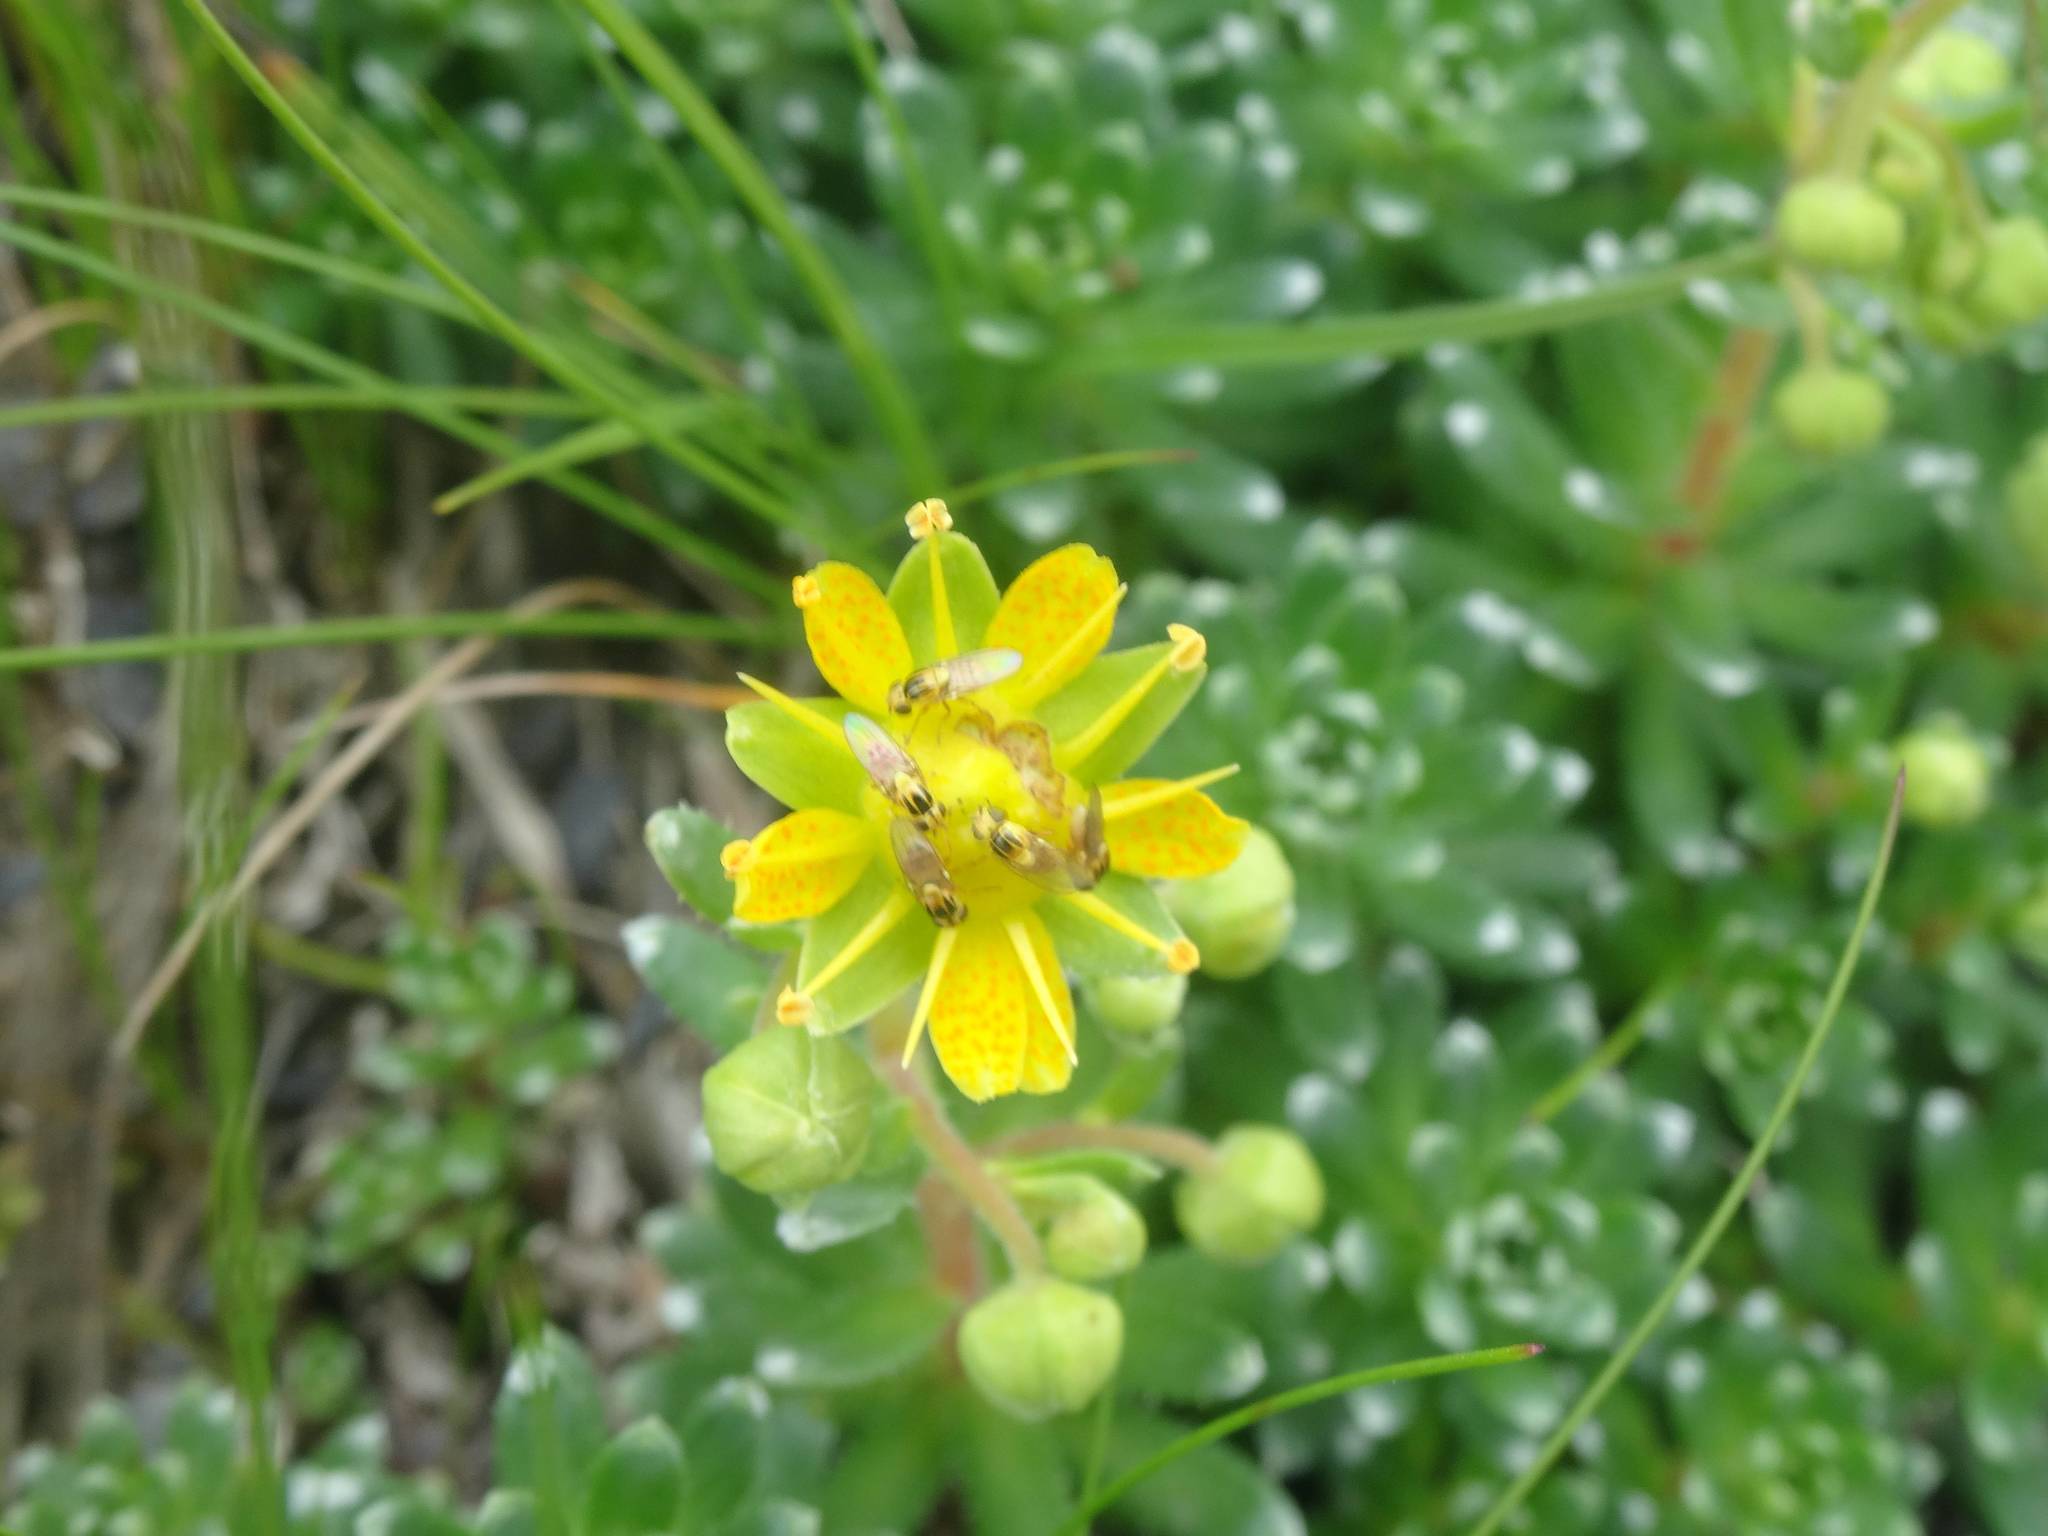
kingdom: Plantae
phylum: Tracheophyta
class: Magnoliopsida
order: Saxifragales
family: Saxifragaceae
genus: Saxifraga
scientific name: Saxifraga aizoides
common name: Yellow mountain saxifrage
